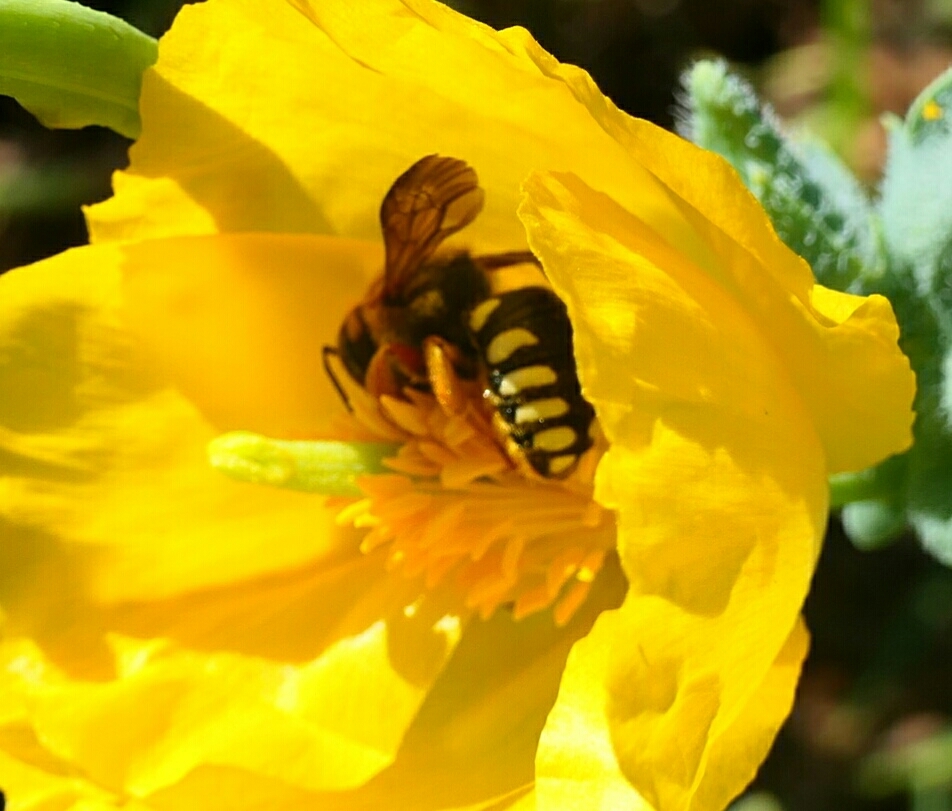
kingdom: Animalia
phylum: Arthropoda
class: Insecta
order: Hymenoptera
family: Megachilidae
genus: Rhodanthidium
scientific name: Rhodanthidium septemdentatum
